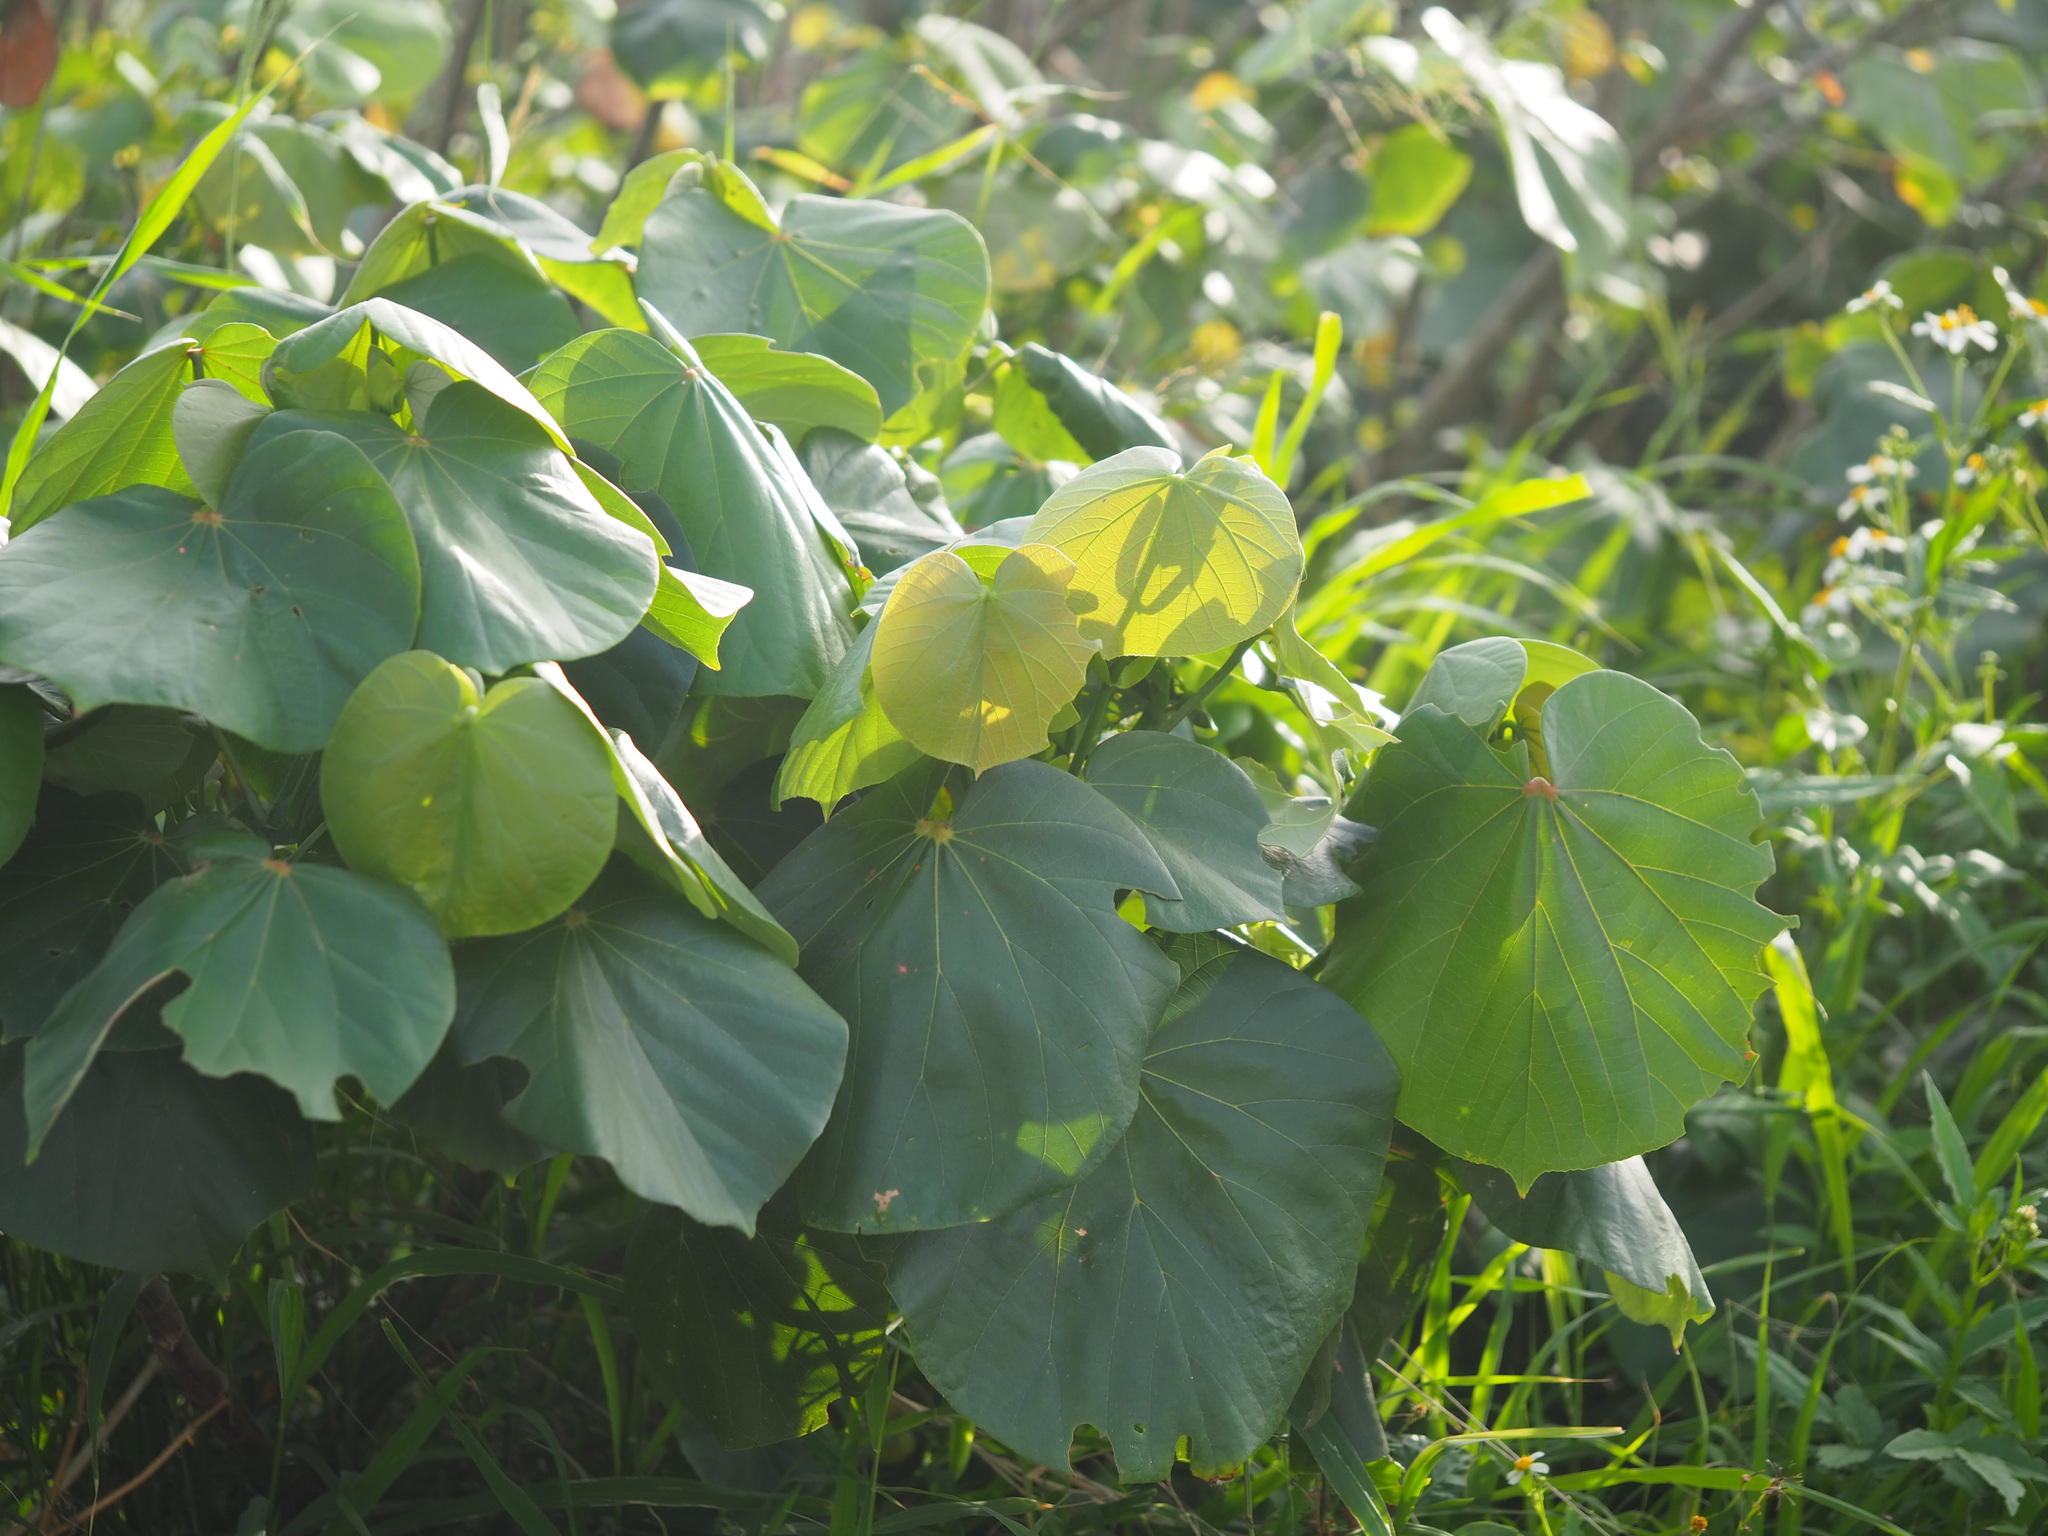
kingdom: Plantae
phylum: Tracheophyta
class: Magnoliopsida
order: Malvales
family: Malvaceae
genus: Talipariti
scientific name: Talipariti tiliaceum
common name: Sea hibiscus
